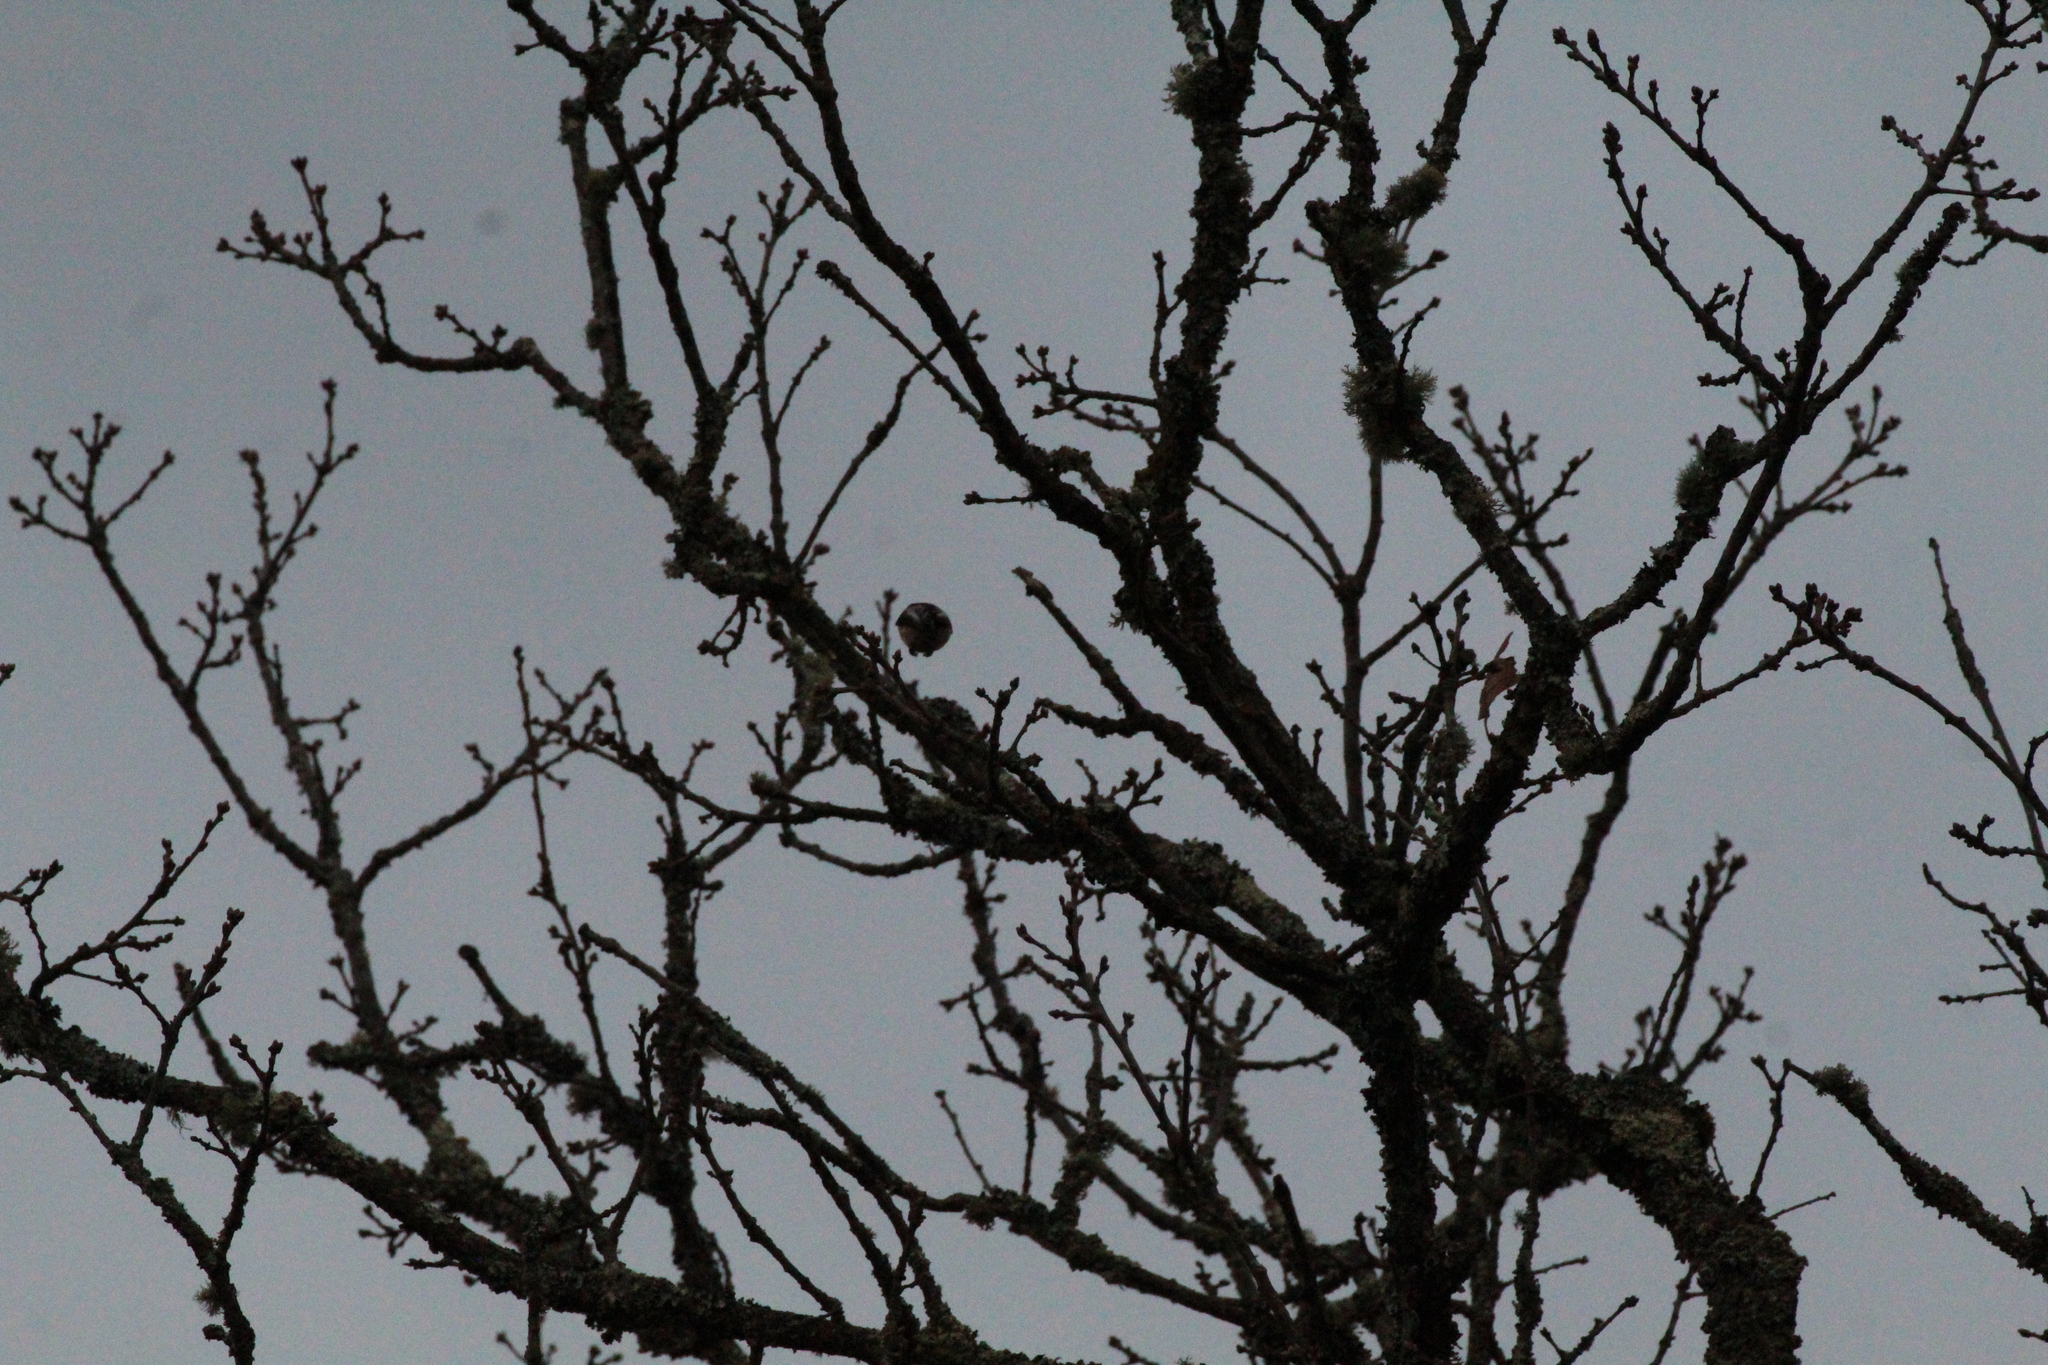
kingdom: Animalia
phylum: Chordata
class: Aves
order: Passeriformes
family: Aegithalidae
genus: Aegithalos
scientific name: Aegithalos caudatus
